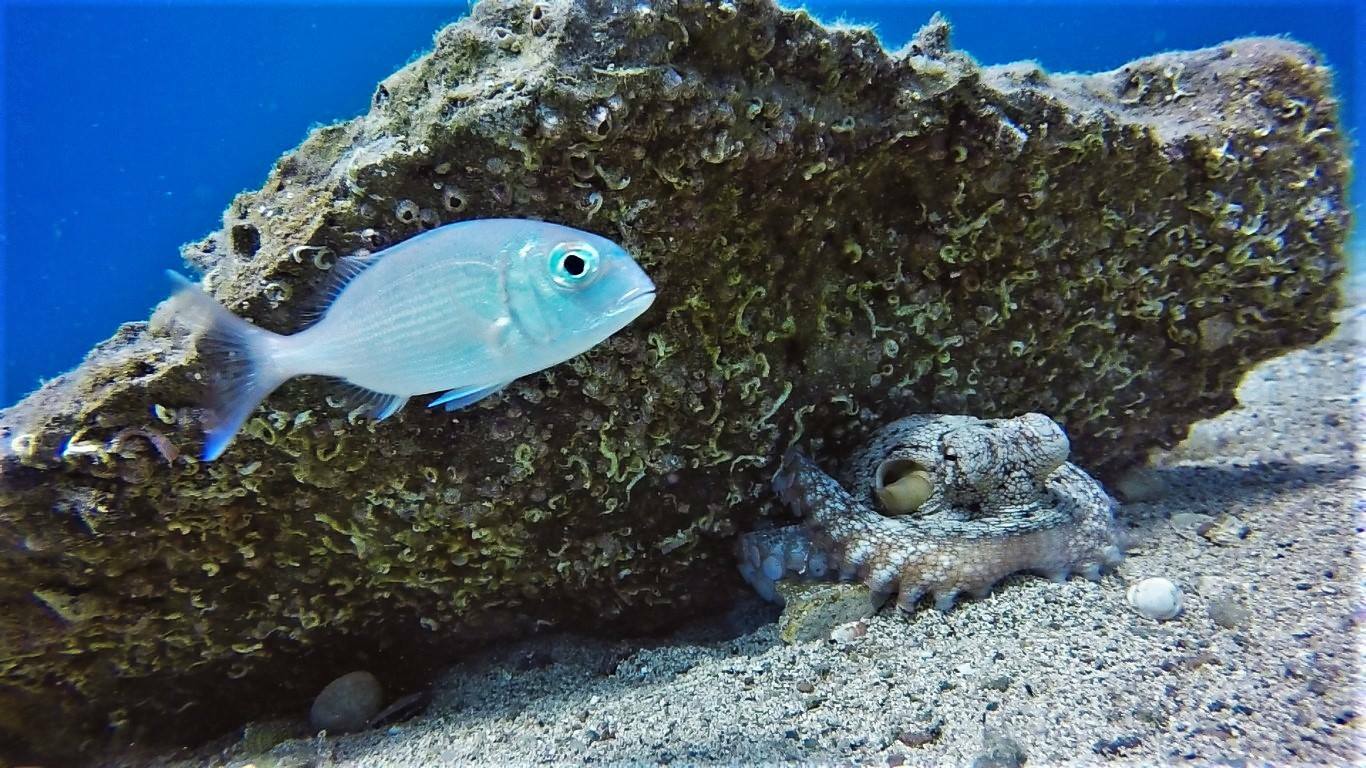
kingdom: Animalia
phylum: Mollusca
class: Cephalopoda
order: Octopoda
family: Octopodidae
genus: Octopus
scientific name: Octopus vulgaris
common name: Common octopus
